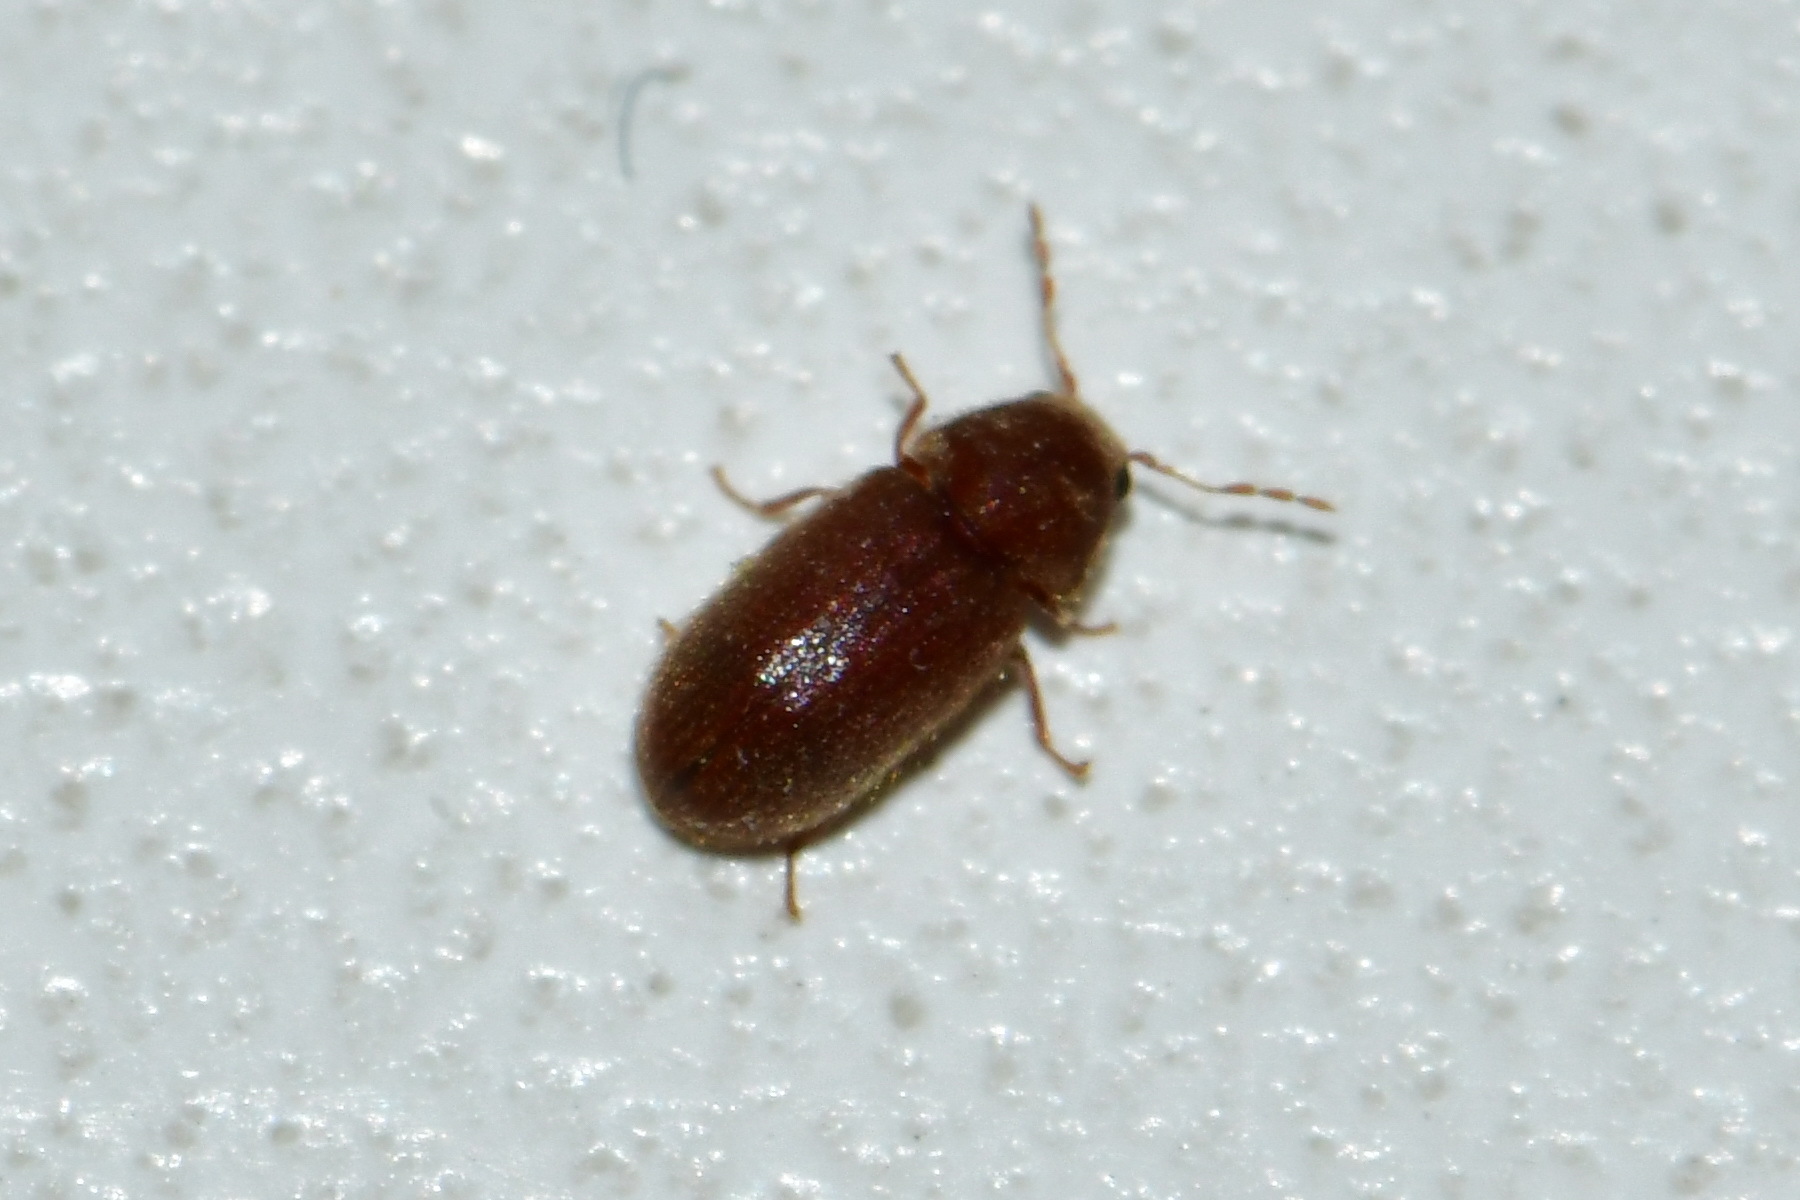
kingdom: Animalia
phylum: Arthropoda
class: Insecta
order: Coleoptera
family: Anobiidae
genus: Stegobium
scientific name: Stegobium paniceum
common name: Drugstore beetle
